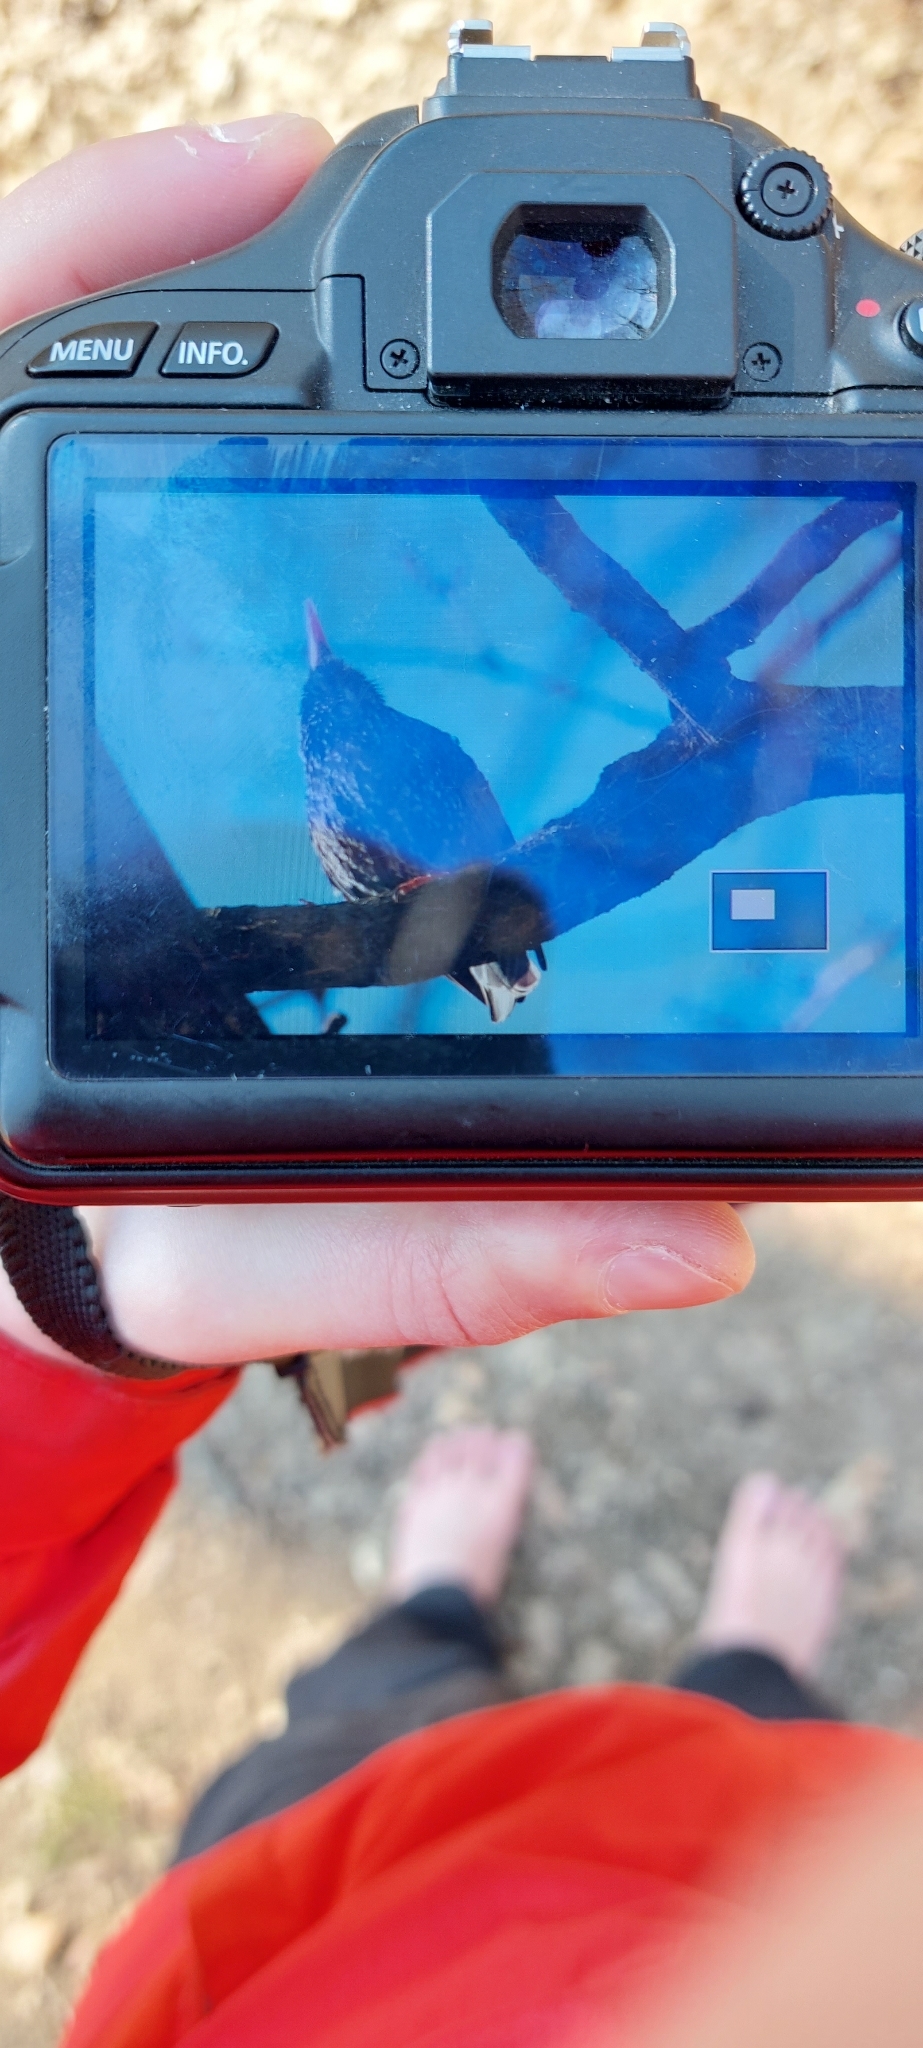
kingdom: Animalia
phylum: Chordata
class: Aves
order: Passeriformes
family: Sturnidae
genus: Sturnus
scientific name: Sturnus vulgaris
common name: Common starling
